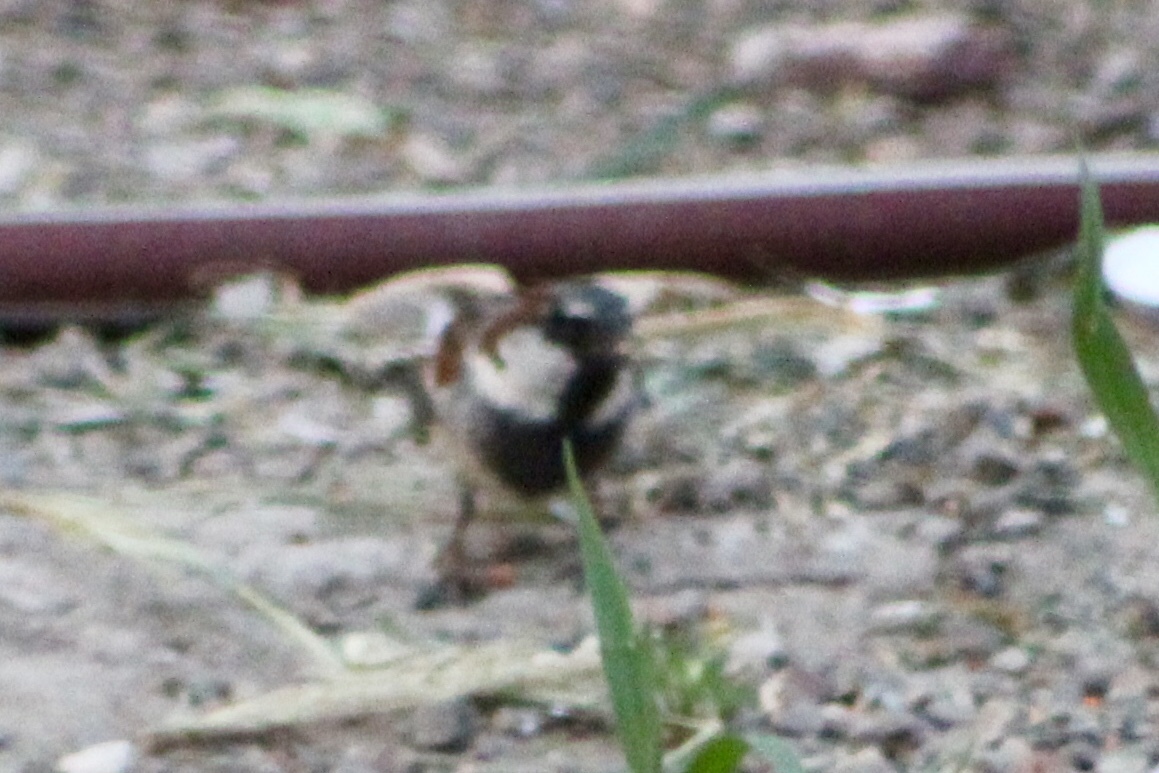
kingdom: Animalia
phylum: Chordata
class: Aves
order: Passeriformes
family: Passeridae
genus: Passer
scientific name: Passer domesticus
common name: House sparrow
